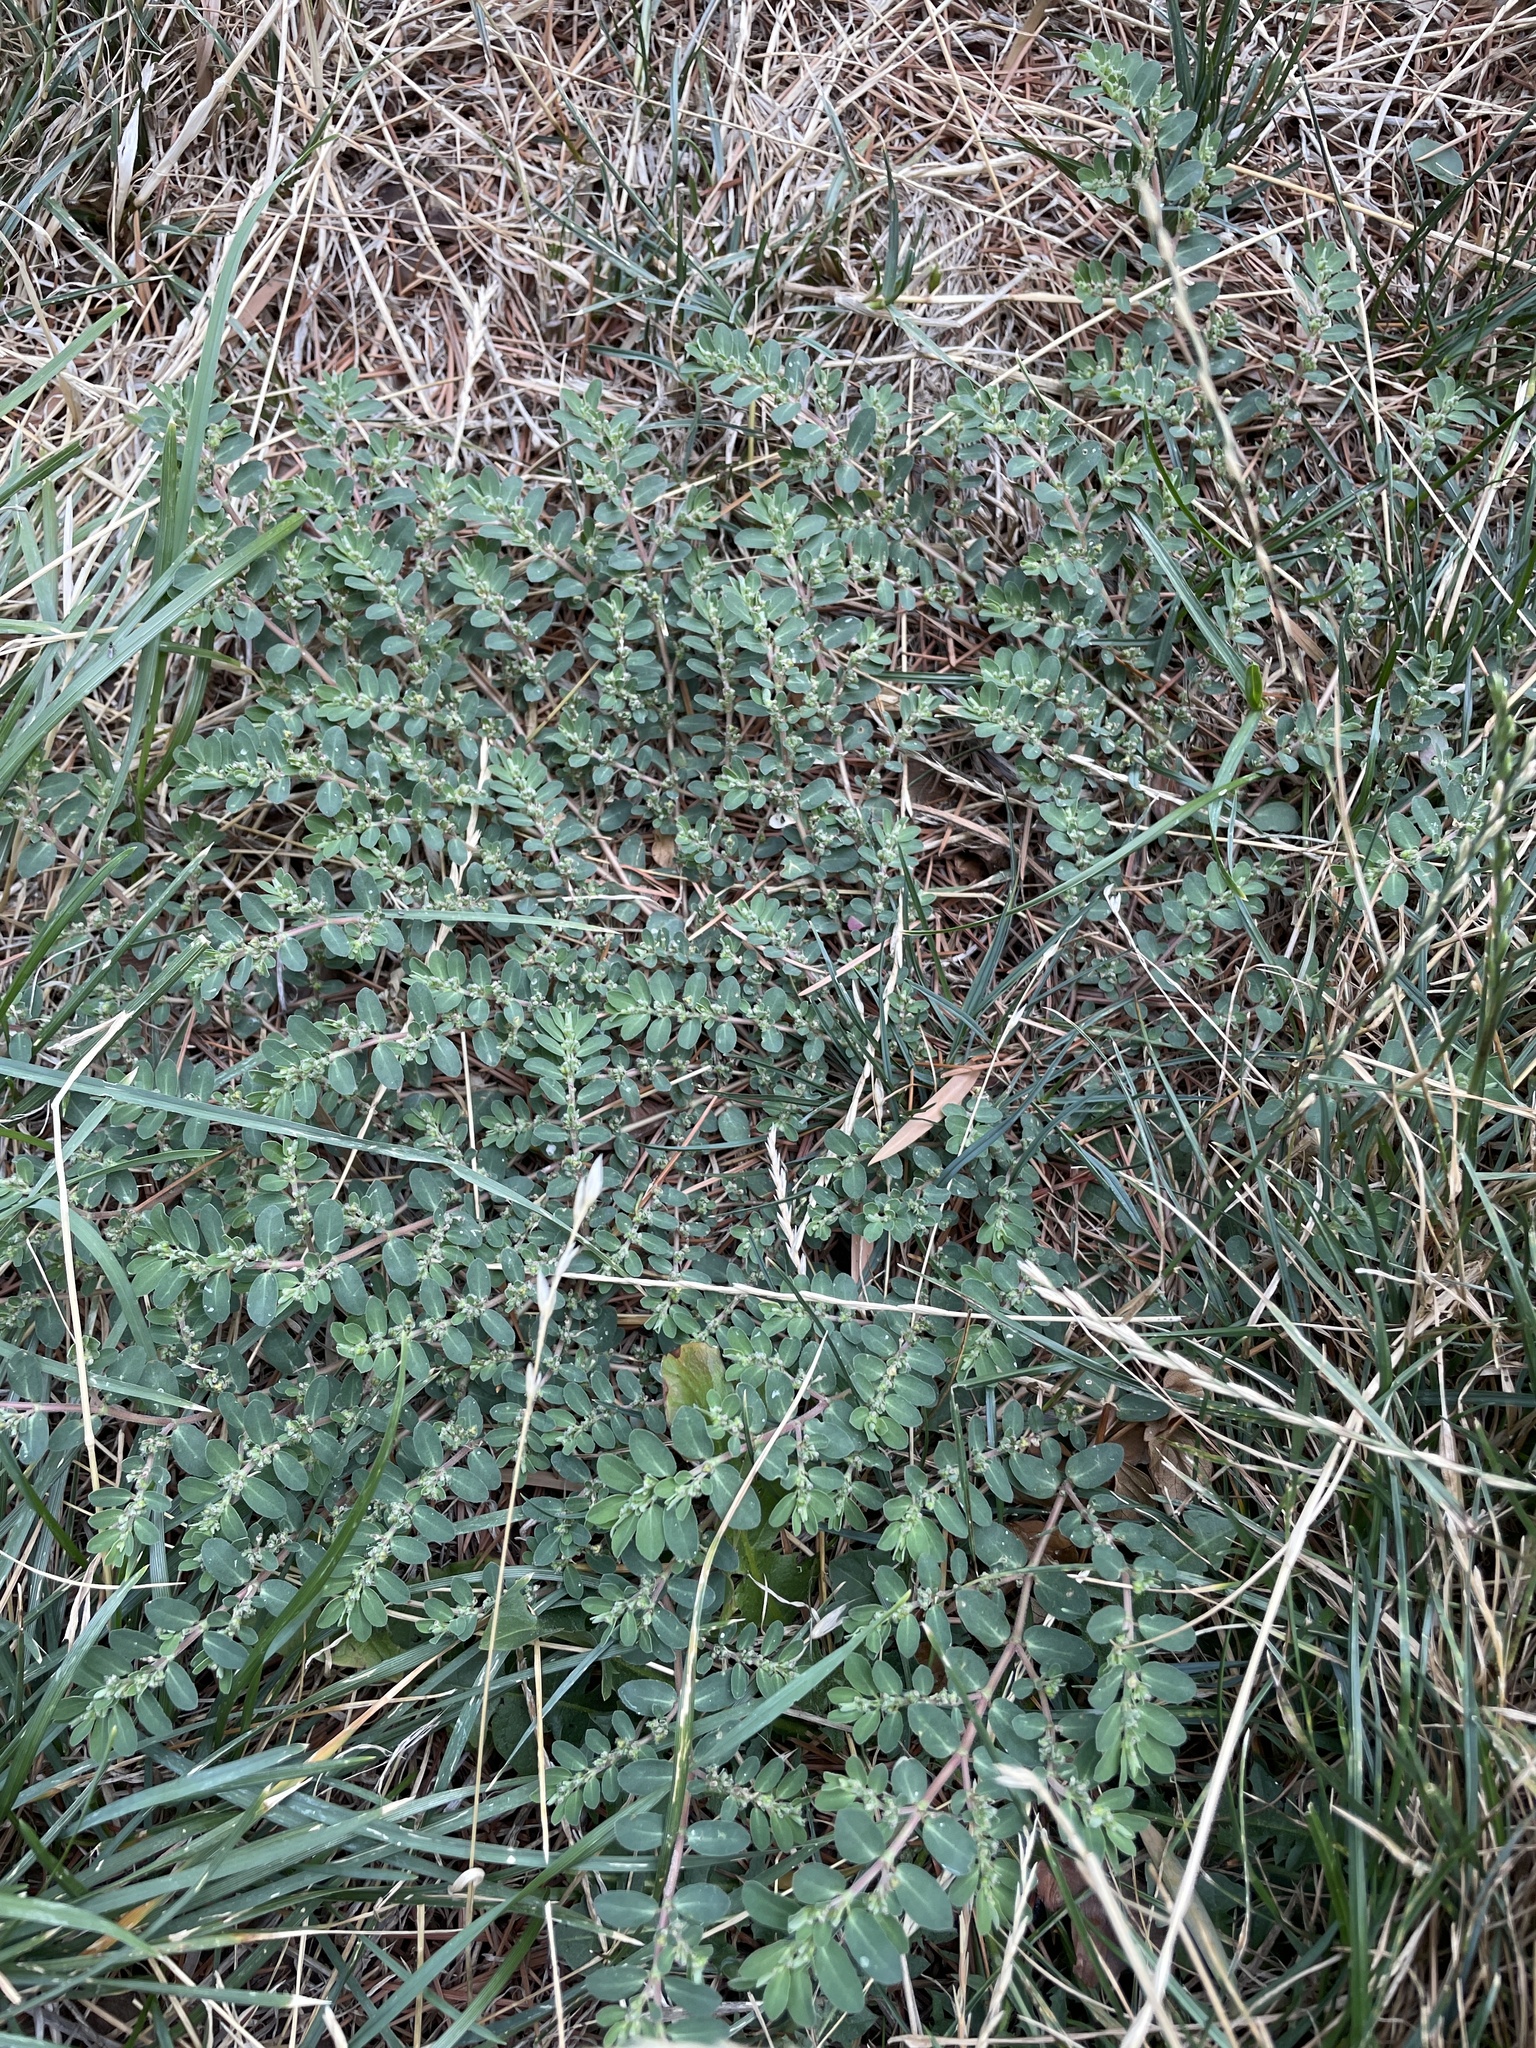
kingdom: Plantae
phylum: Tracheophyta
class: Magnoliopsida
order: Malpighiales
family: Euphorbiaceae
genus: Euphorbia
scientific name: Euphorbia prostrata
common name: Prostrate sandmat
